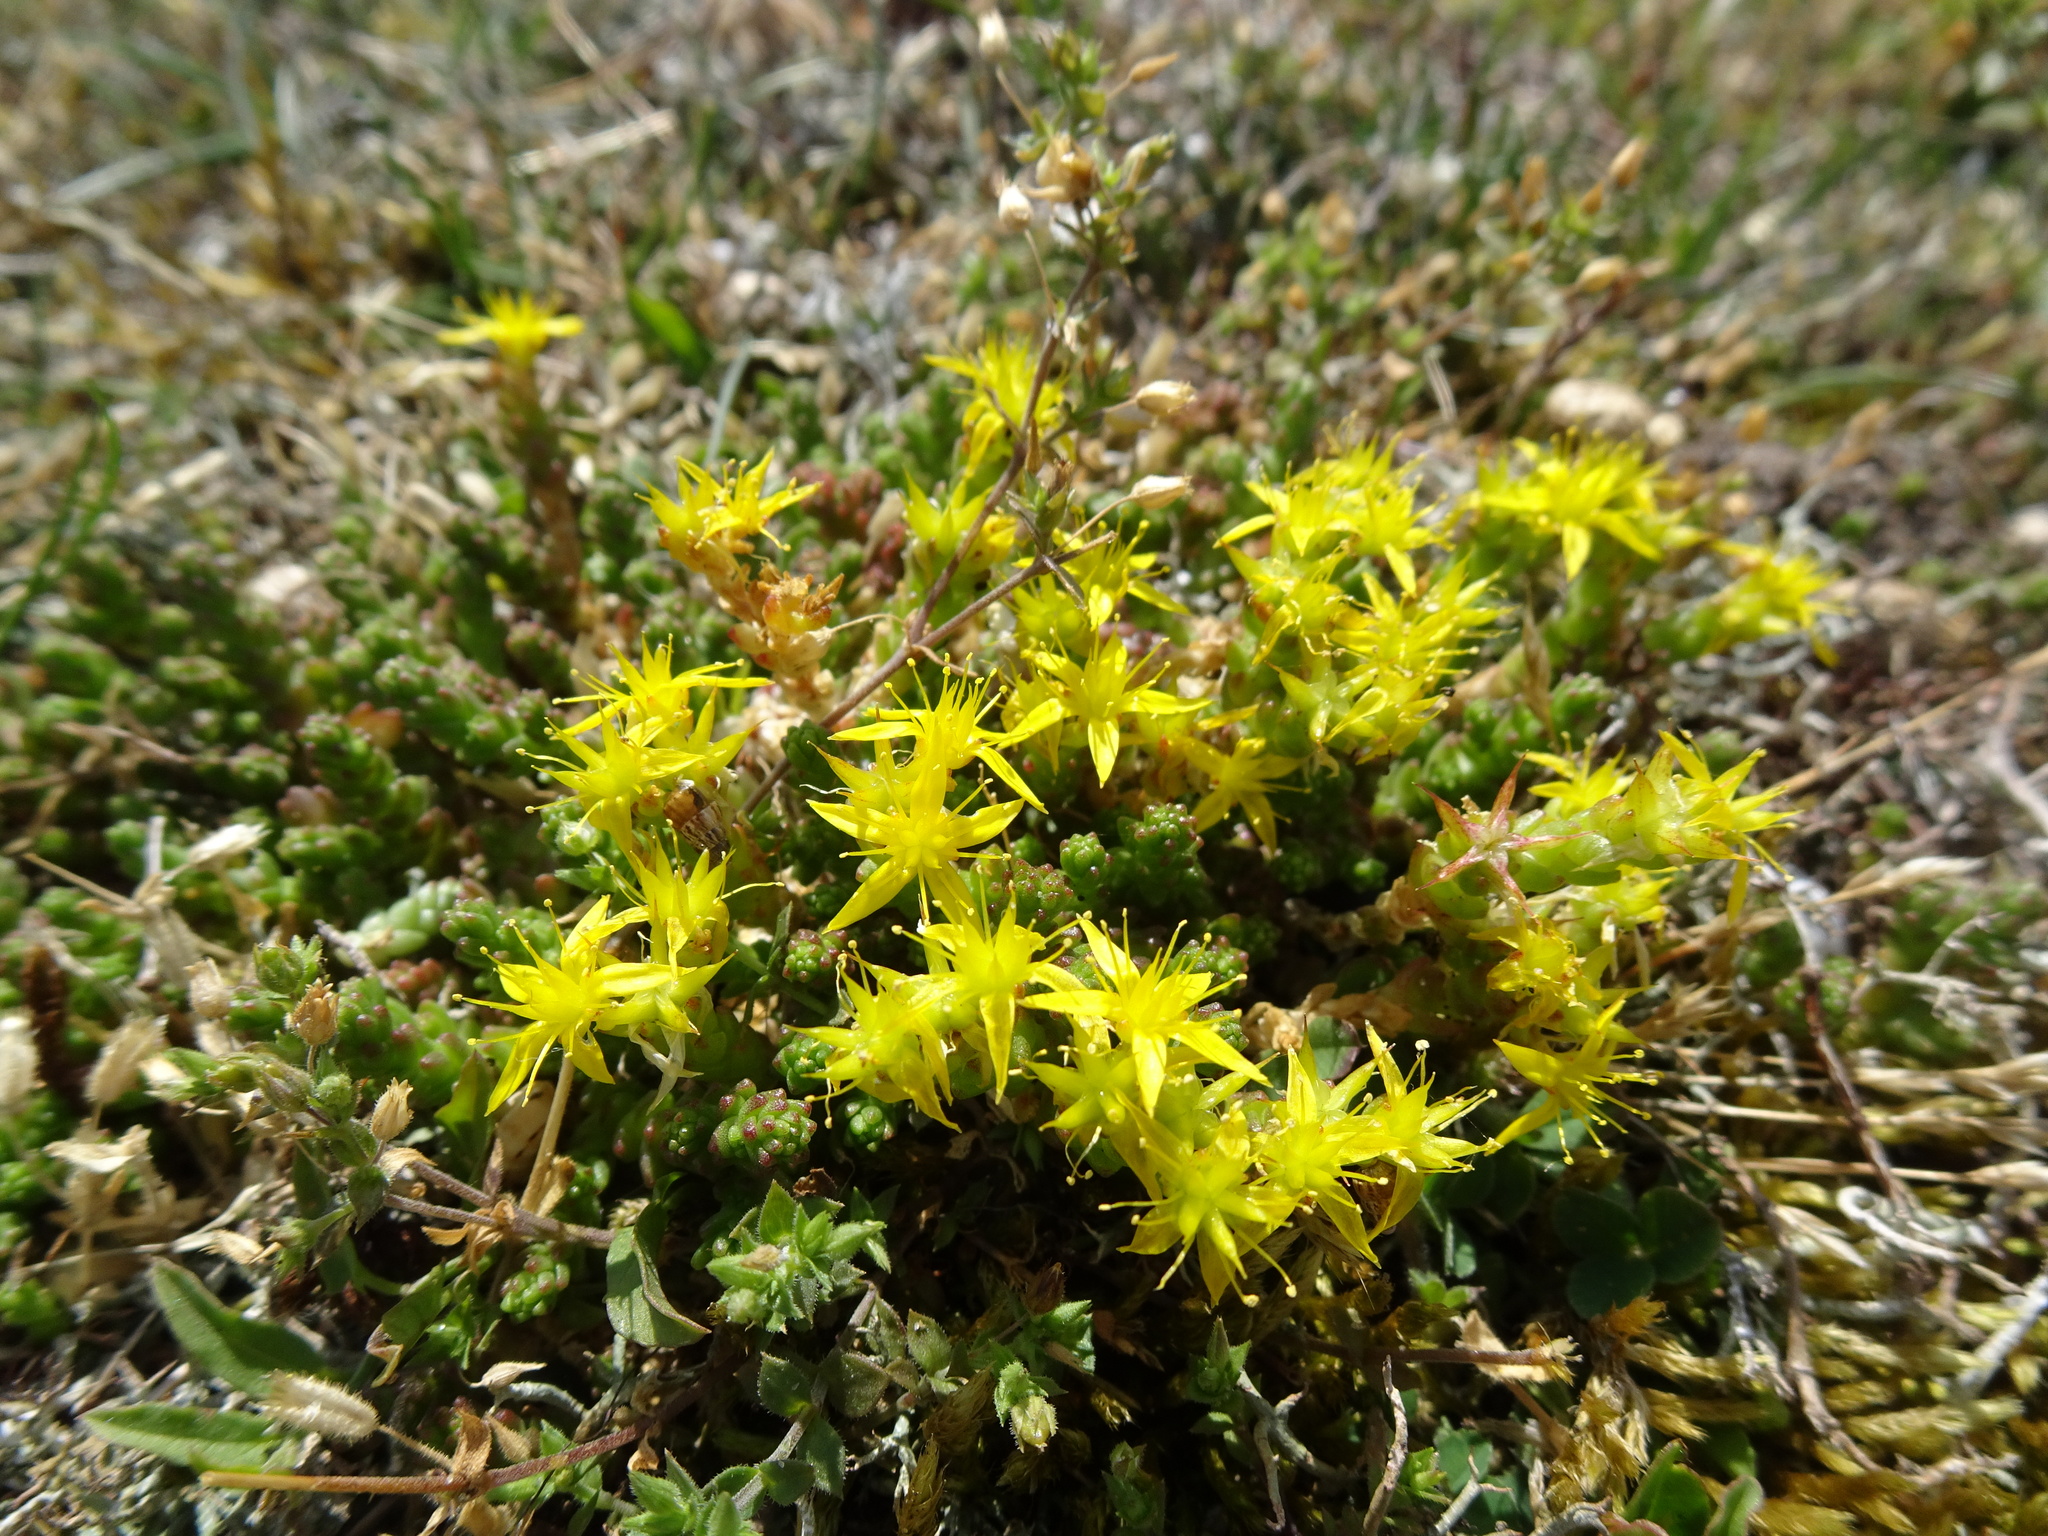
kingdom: Plantae
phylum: Tracheophyta
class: Magnoliopsida
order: Saxifragales
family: Crassulaceae
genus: Sedum
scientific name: Sedum acre
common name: Biting stonecrop
